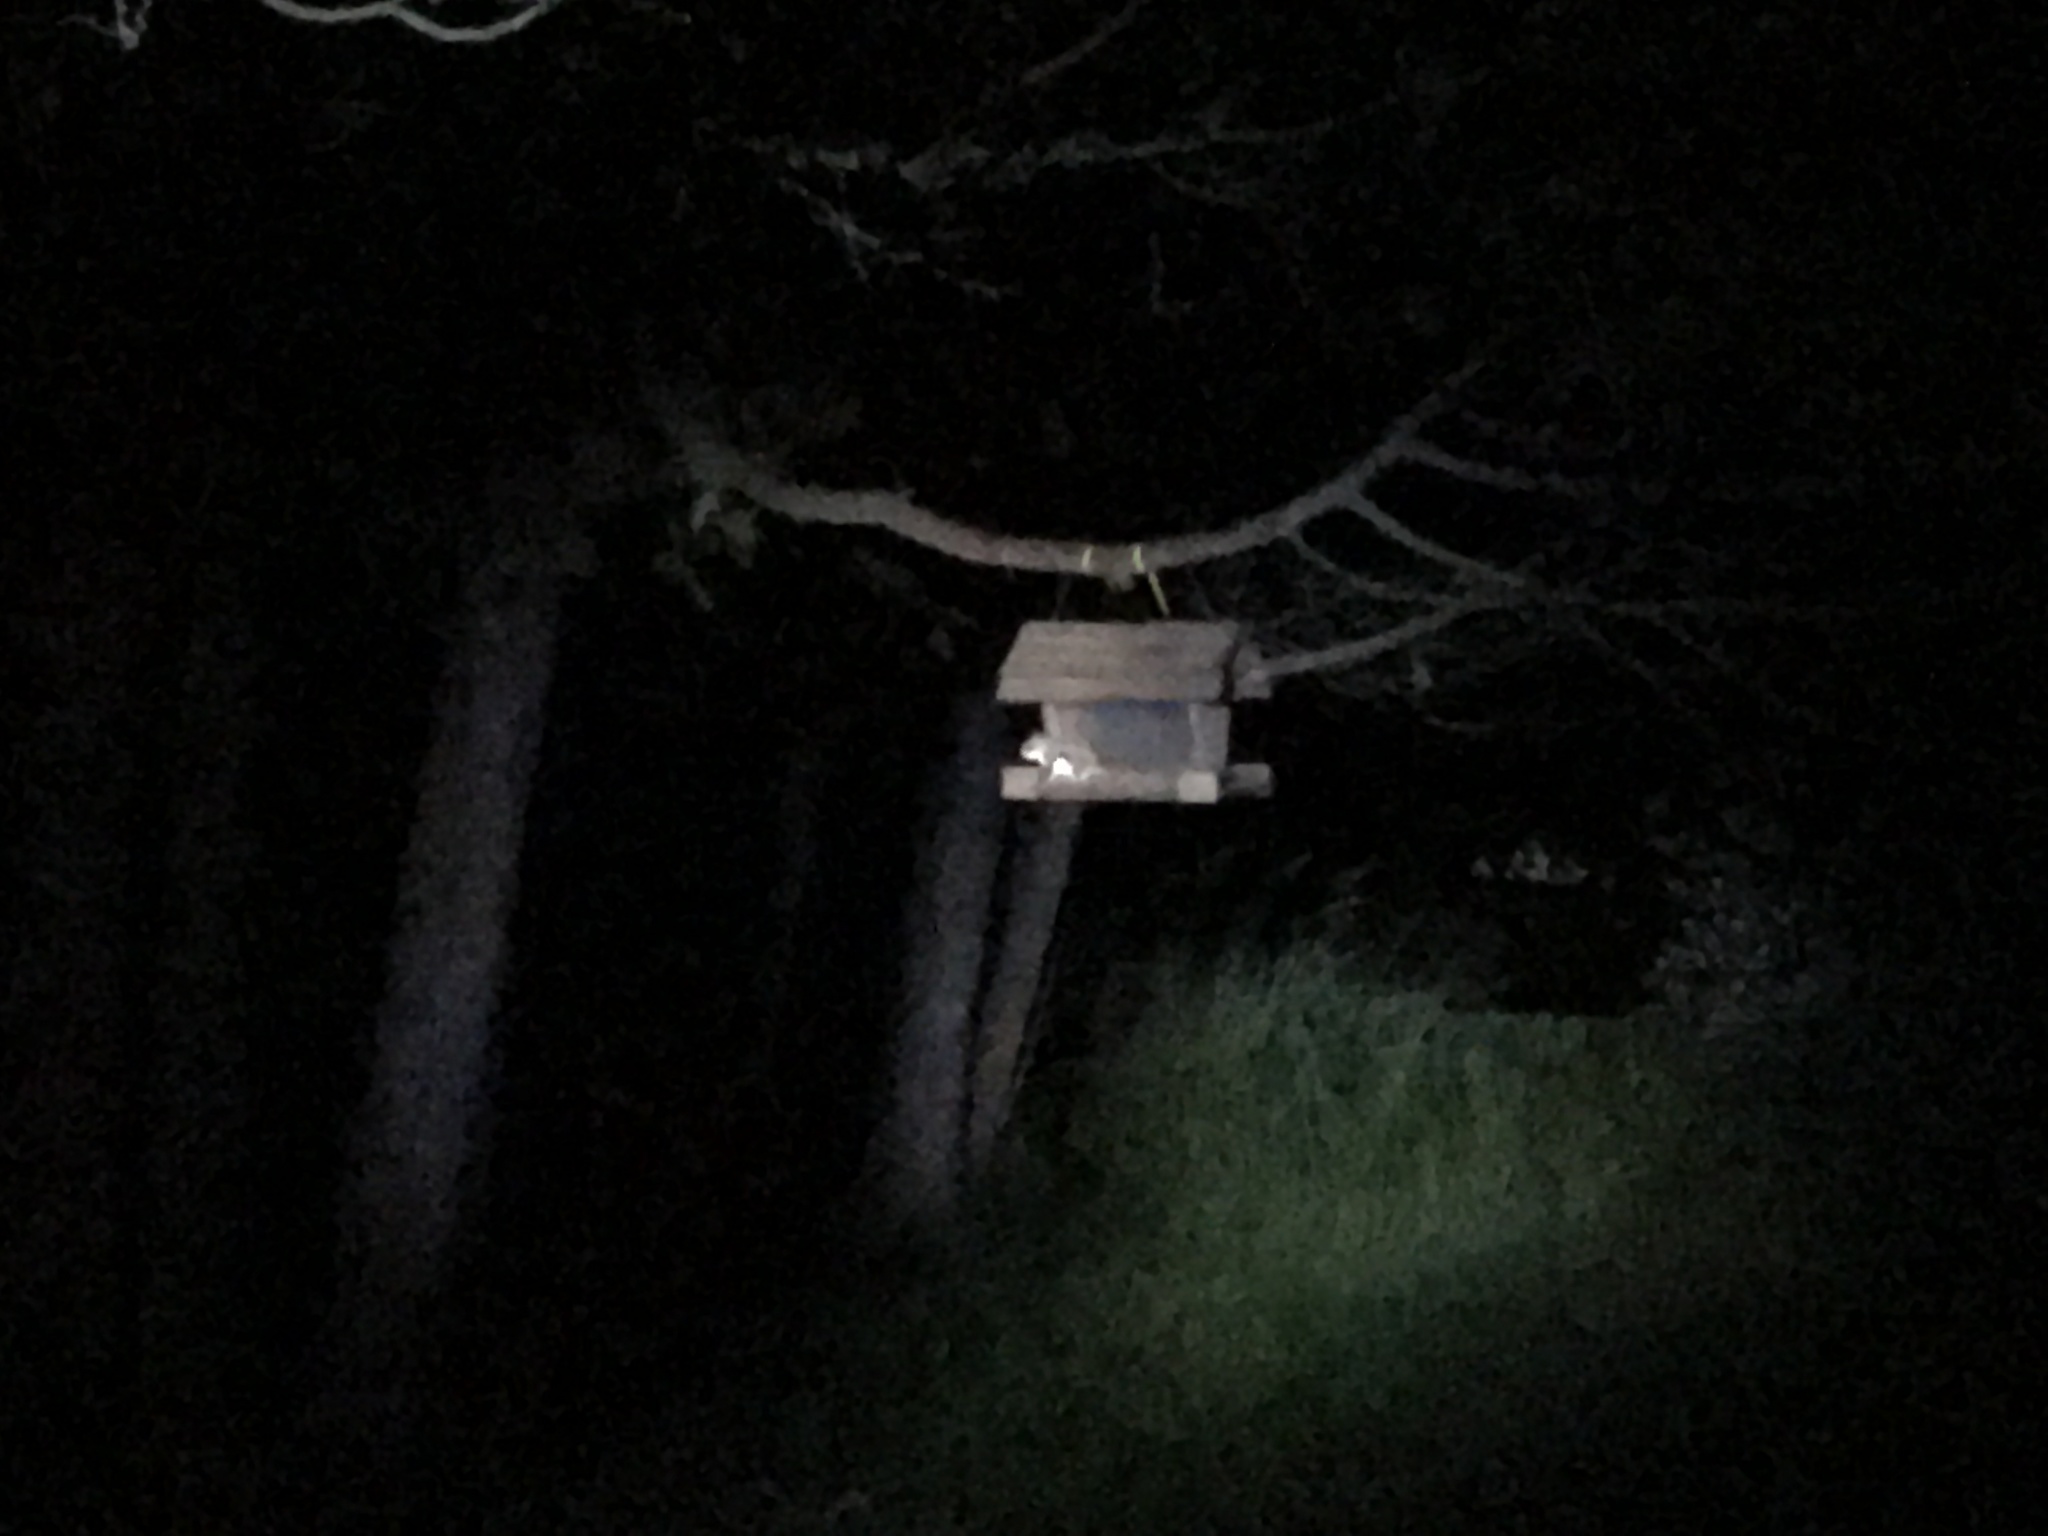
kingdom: Animalia
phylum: Chordata
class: Mammalia
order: Rodentia
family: Sciuridae
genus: Glaucomys
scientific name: Glaucomys sabrinus
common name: Northern flying squirrel
